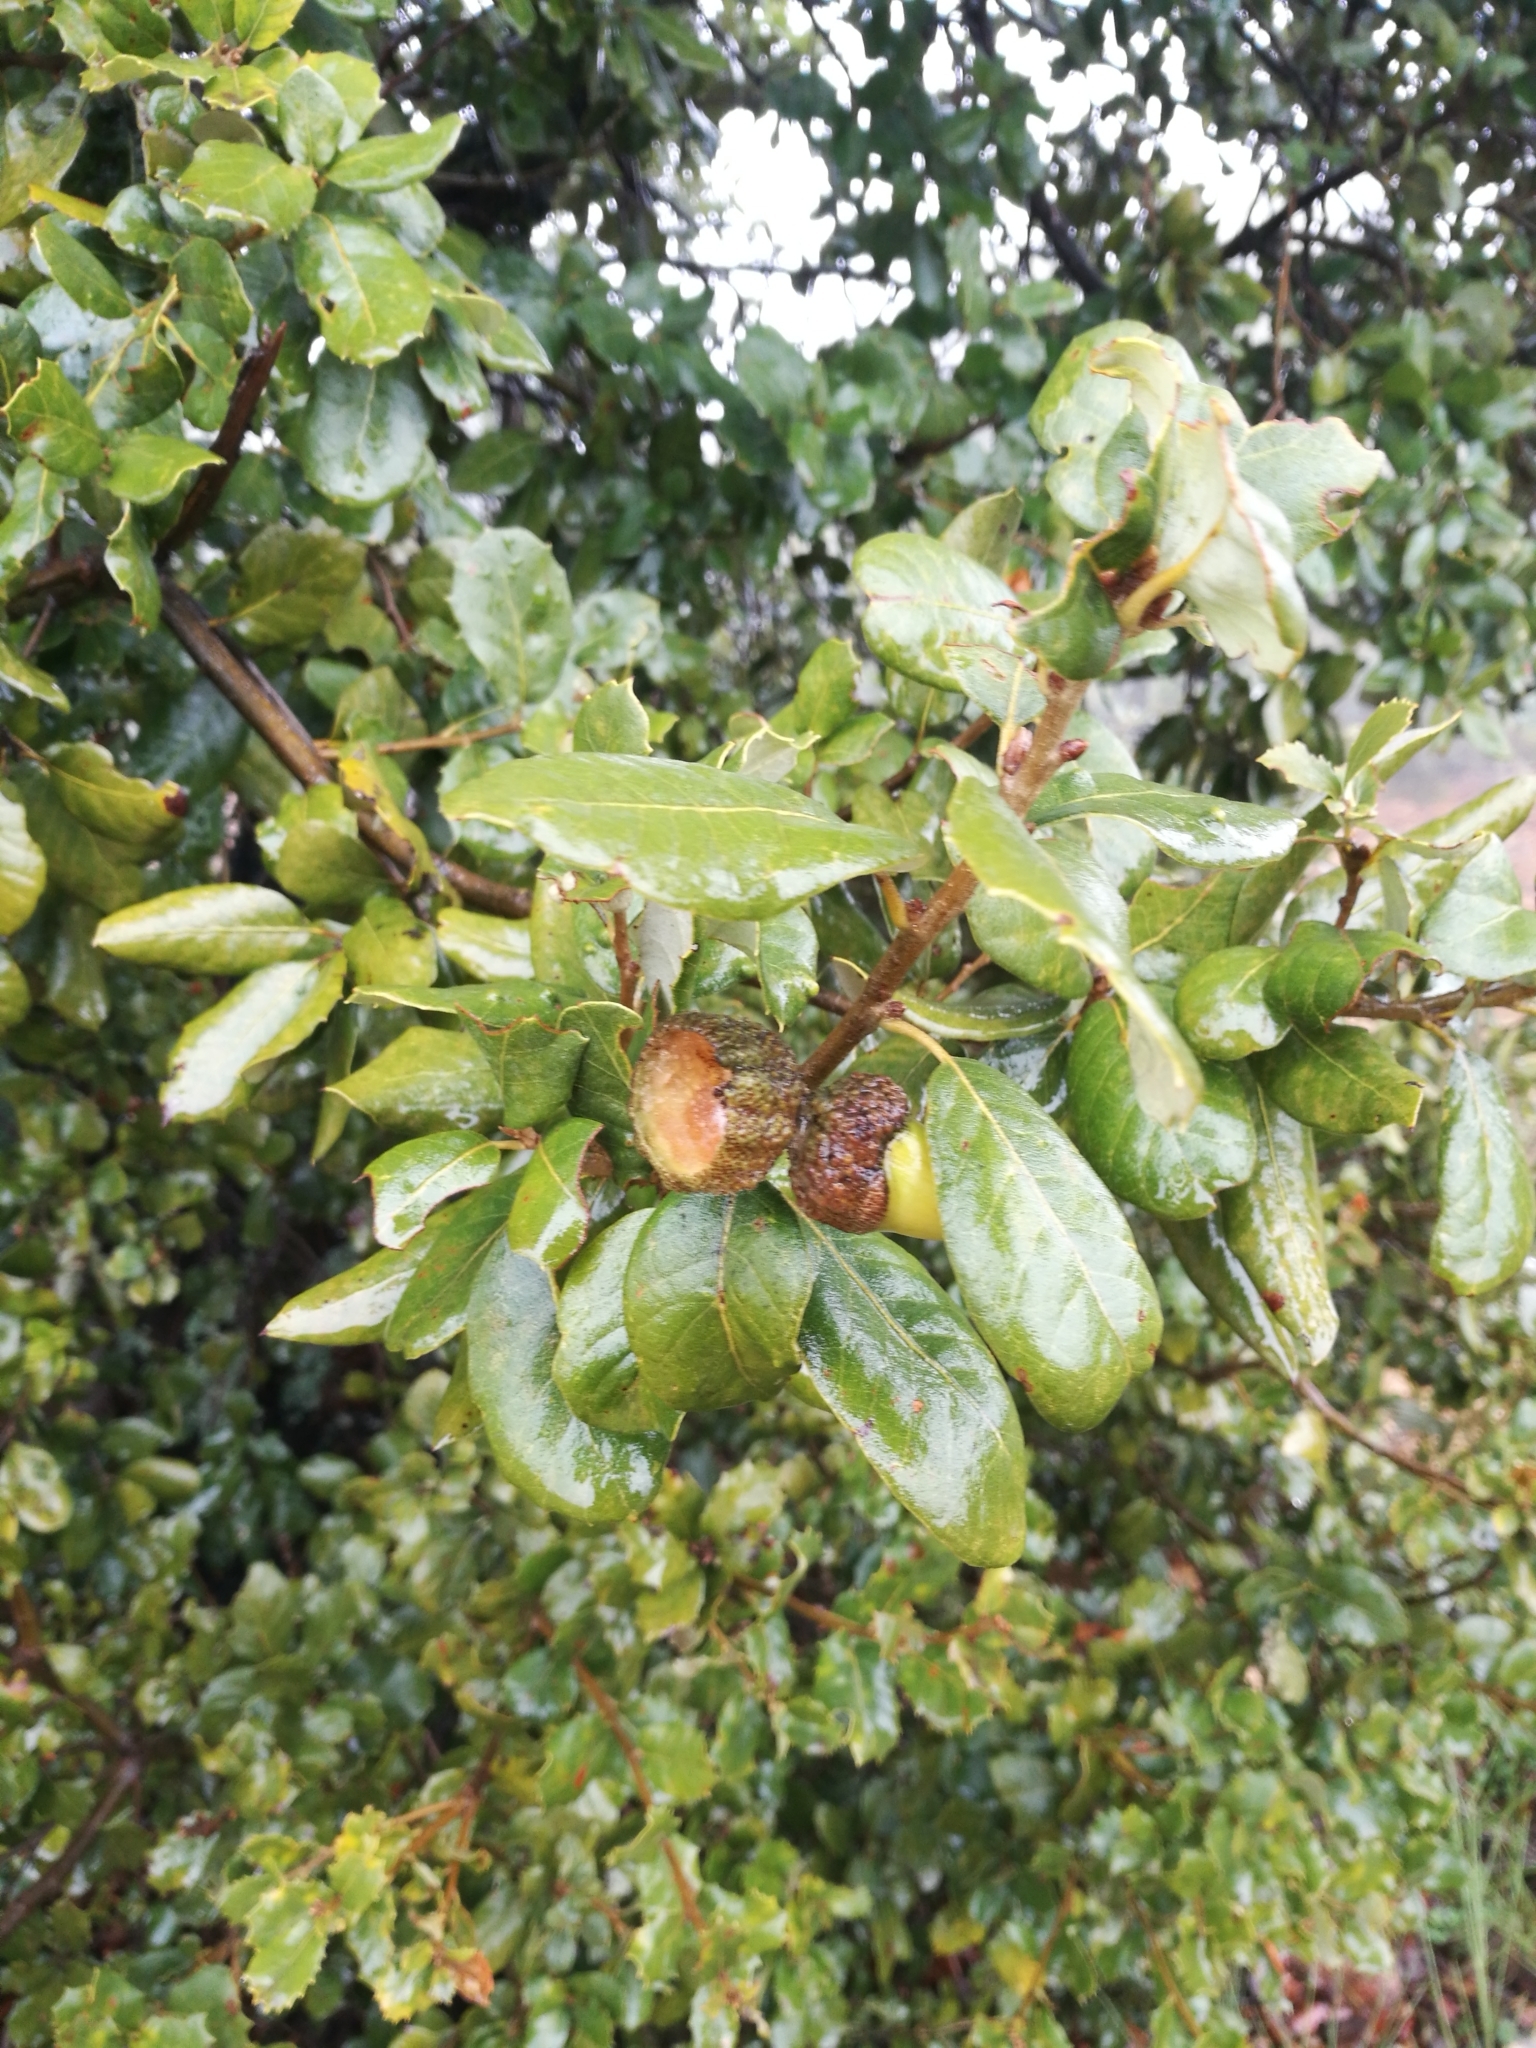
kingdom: Plantae
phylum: Tracheophyta
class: Magnoliopsida
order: Fagales
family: Fagaceae
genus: Quercus
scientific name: Quercus rotundifolia
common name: Holm oak
